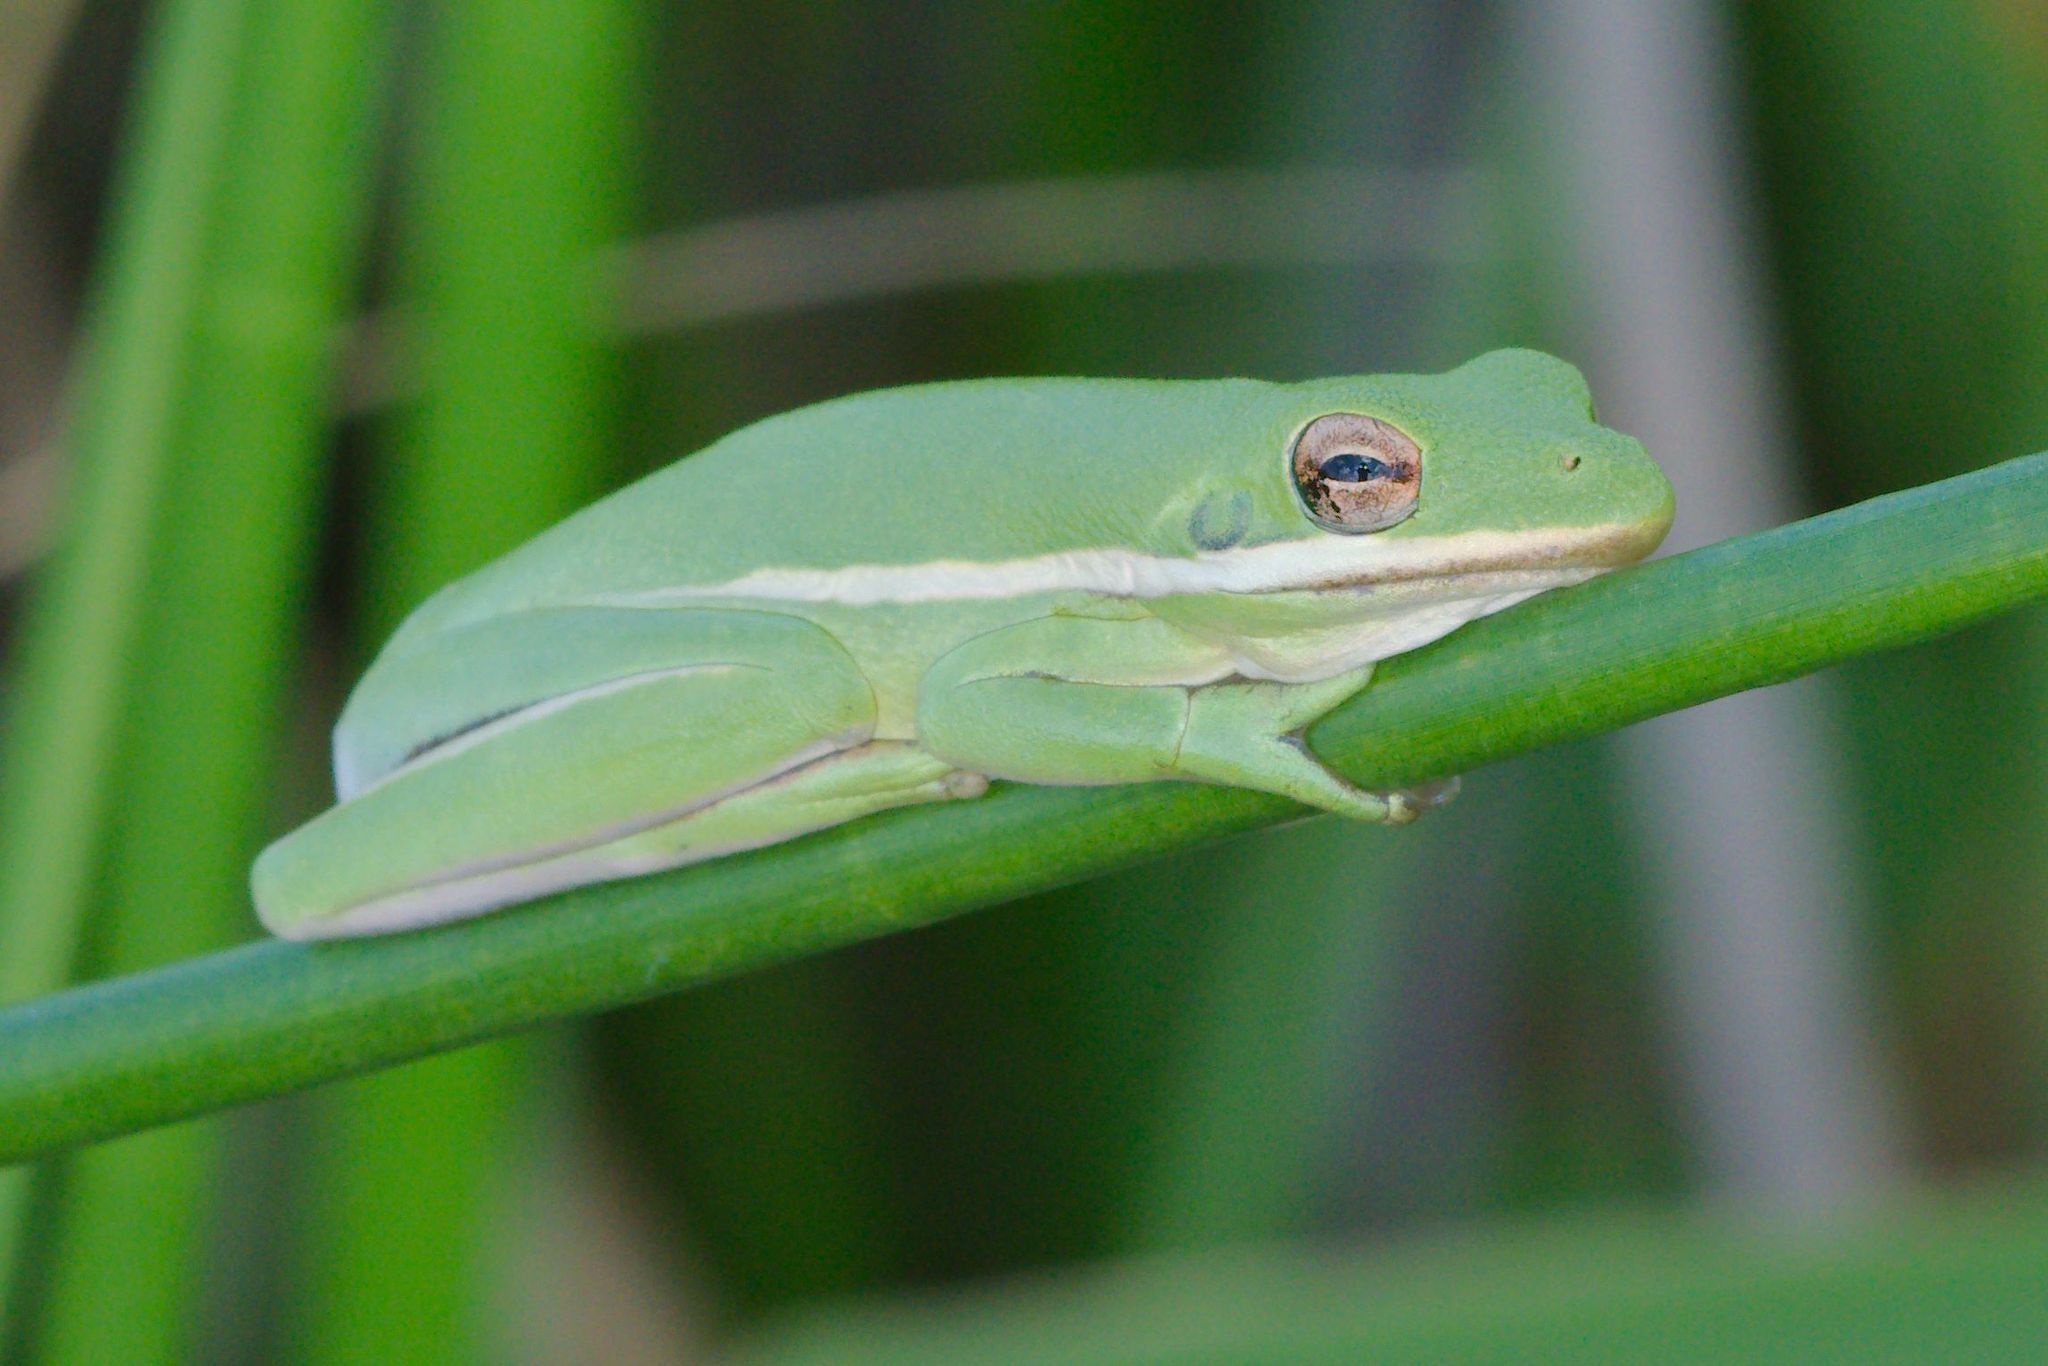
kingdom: Animalia
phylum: Chordata
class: Amphibia
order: Anura
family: Hylidae
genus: Dryophytes
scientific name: Dryophytes cinereus
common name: Green treefrog
